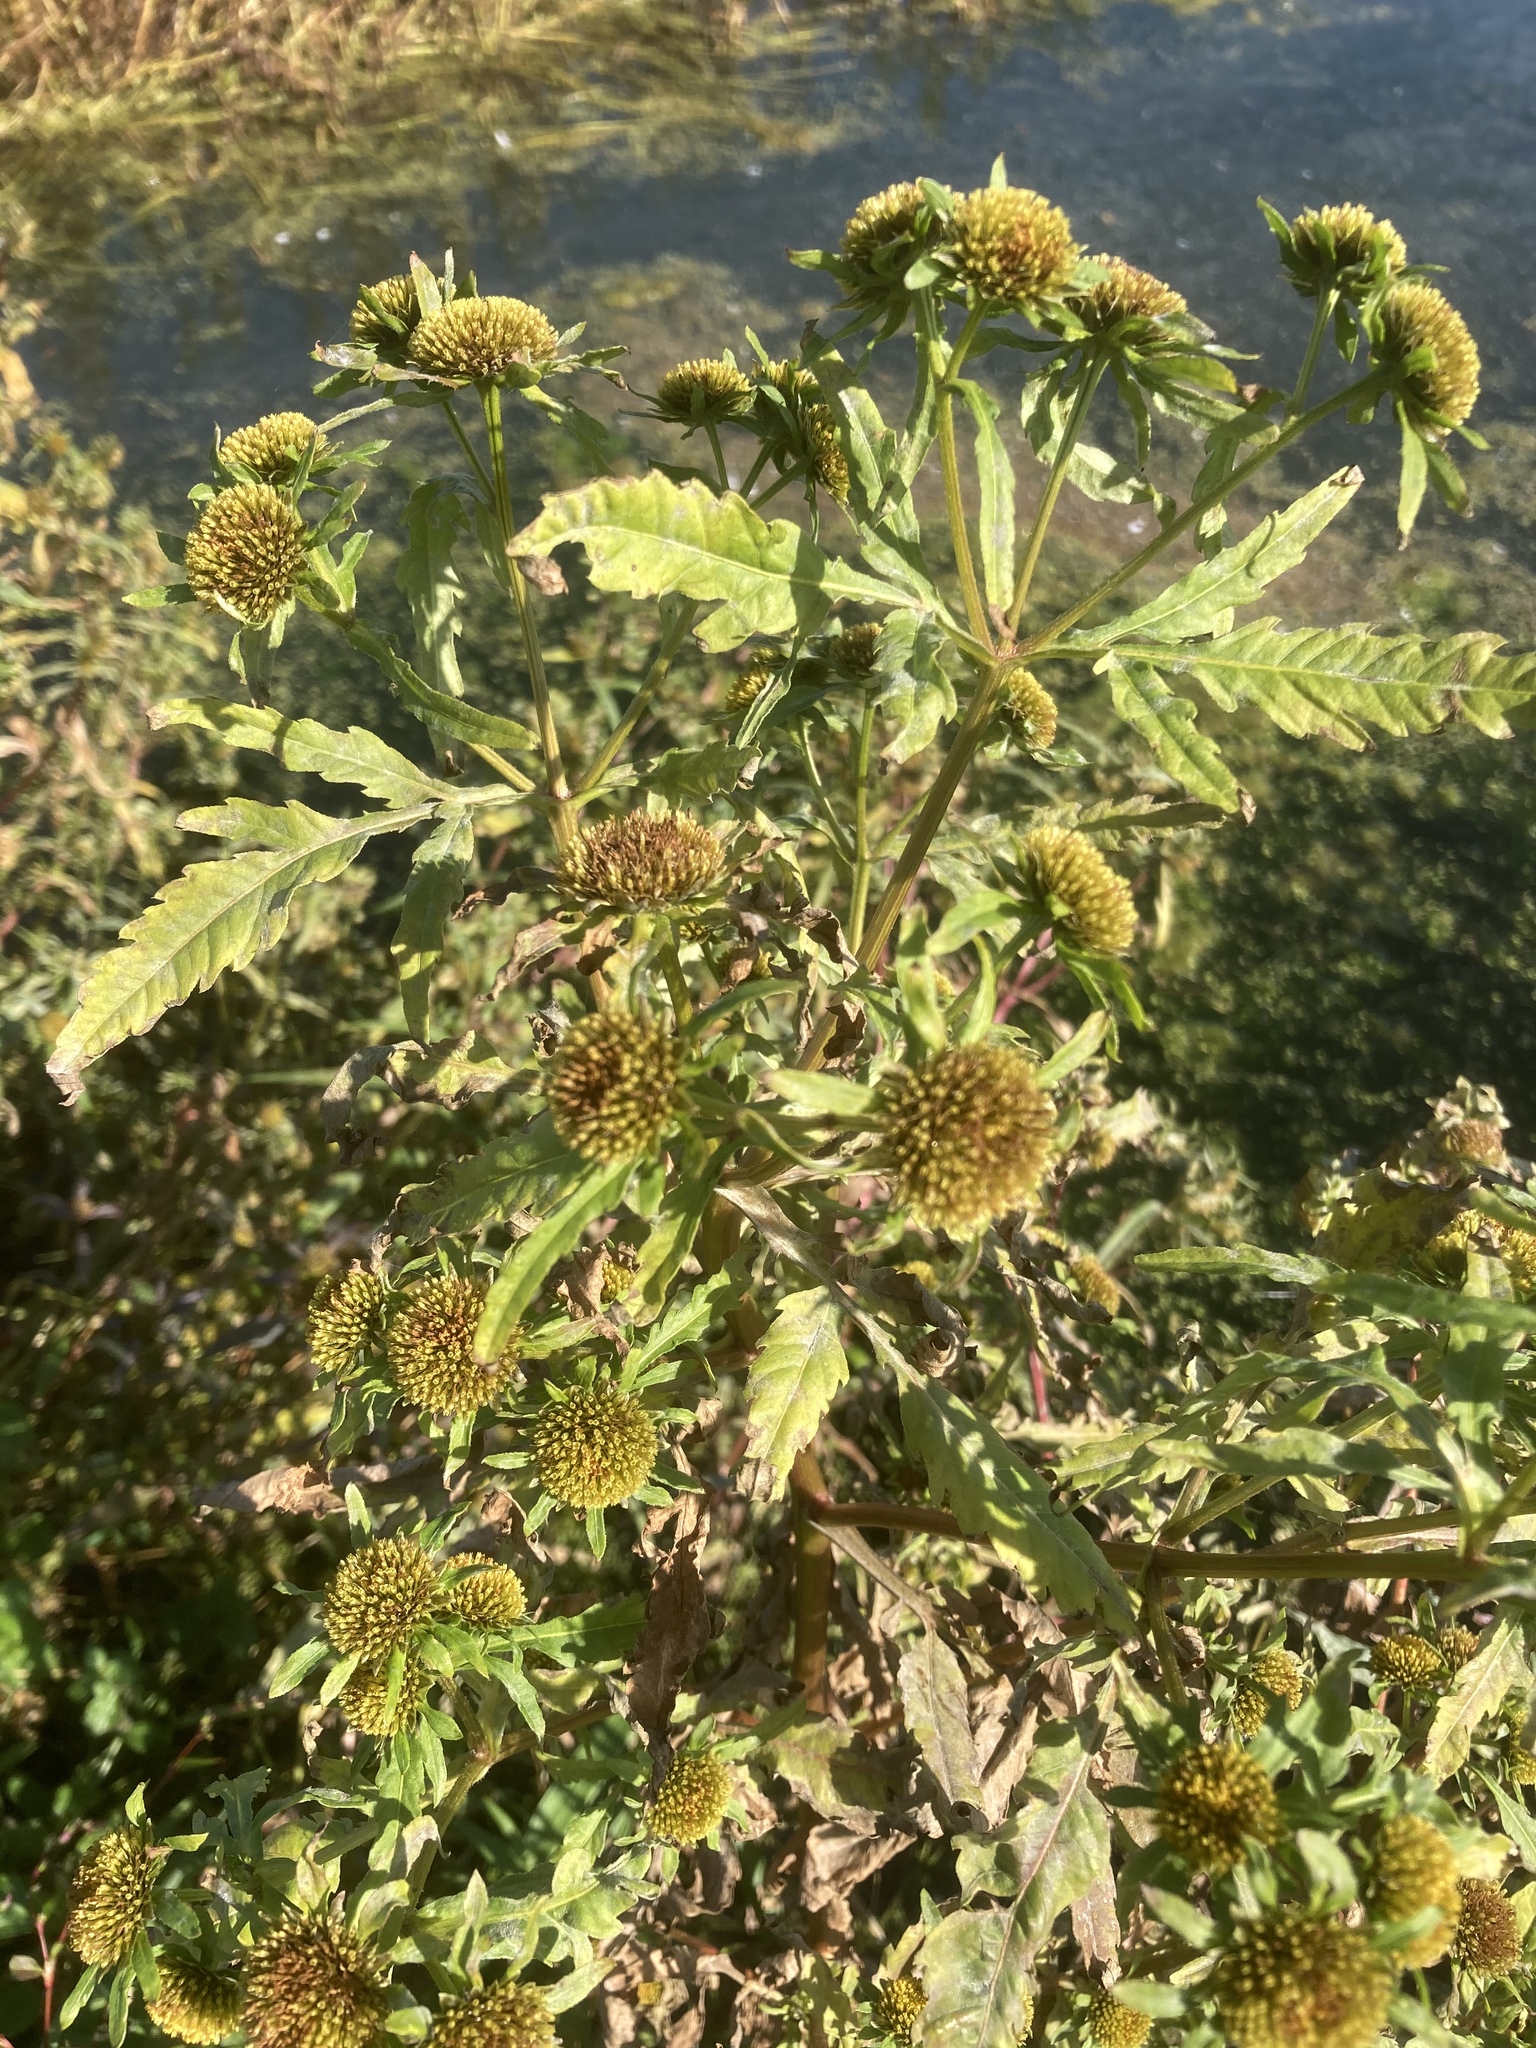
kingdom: Plantae
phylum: Tracheophyta
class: Magnoliopsida
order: Asterales
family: Asteraceae
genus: Bidens
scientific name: Bidens radiata
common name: Radiating bur-marigold
